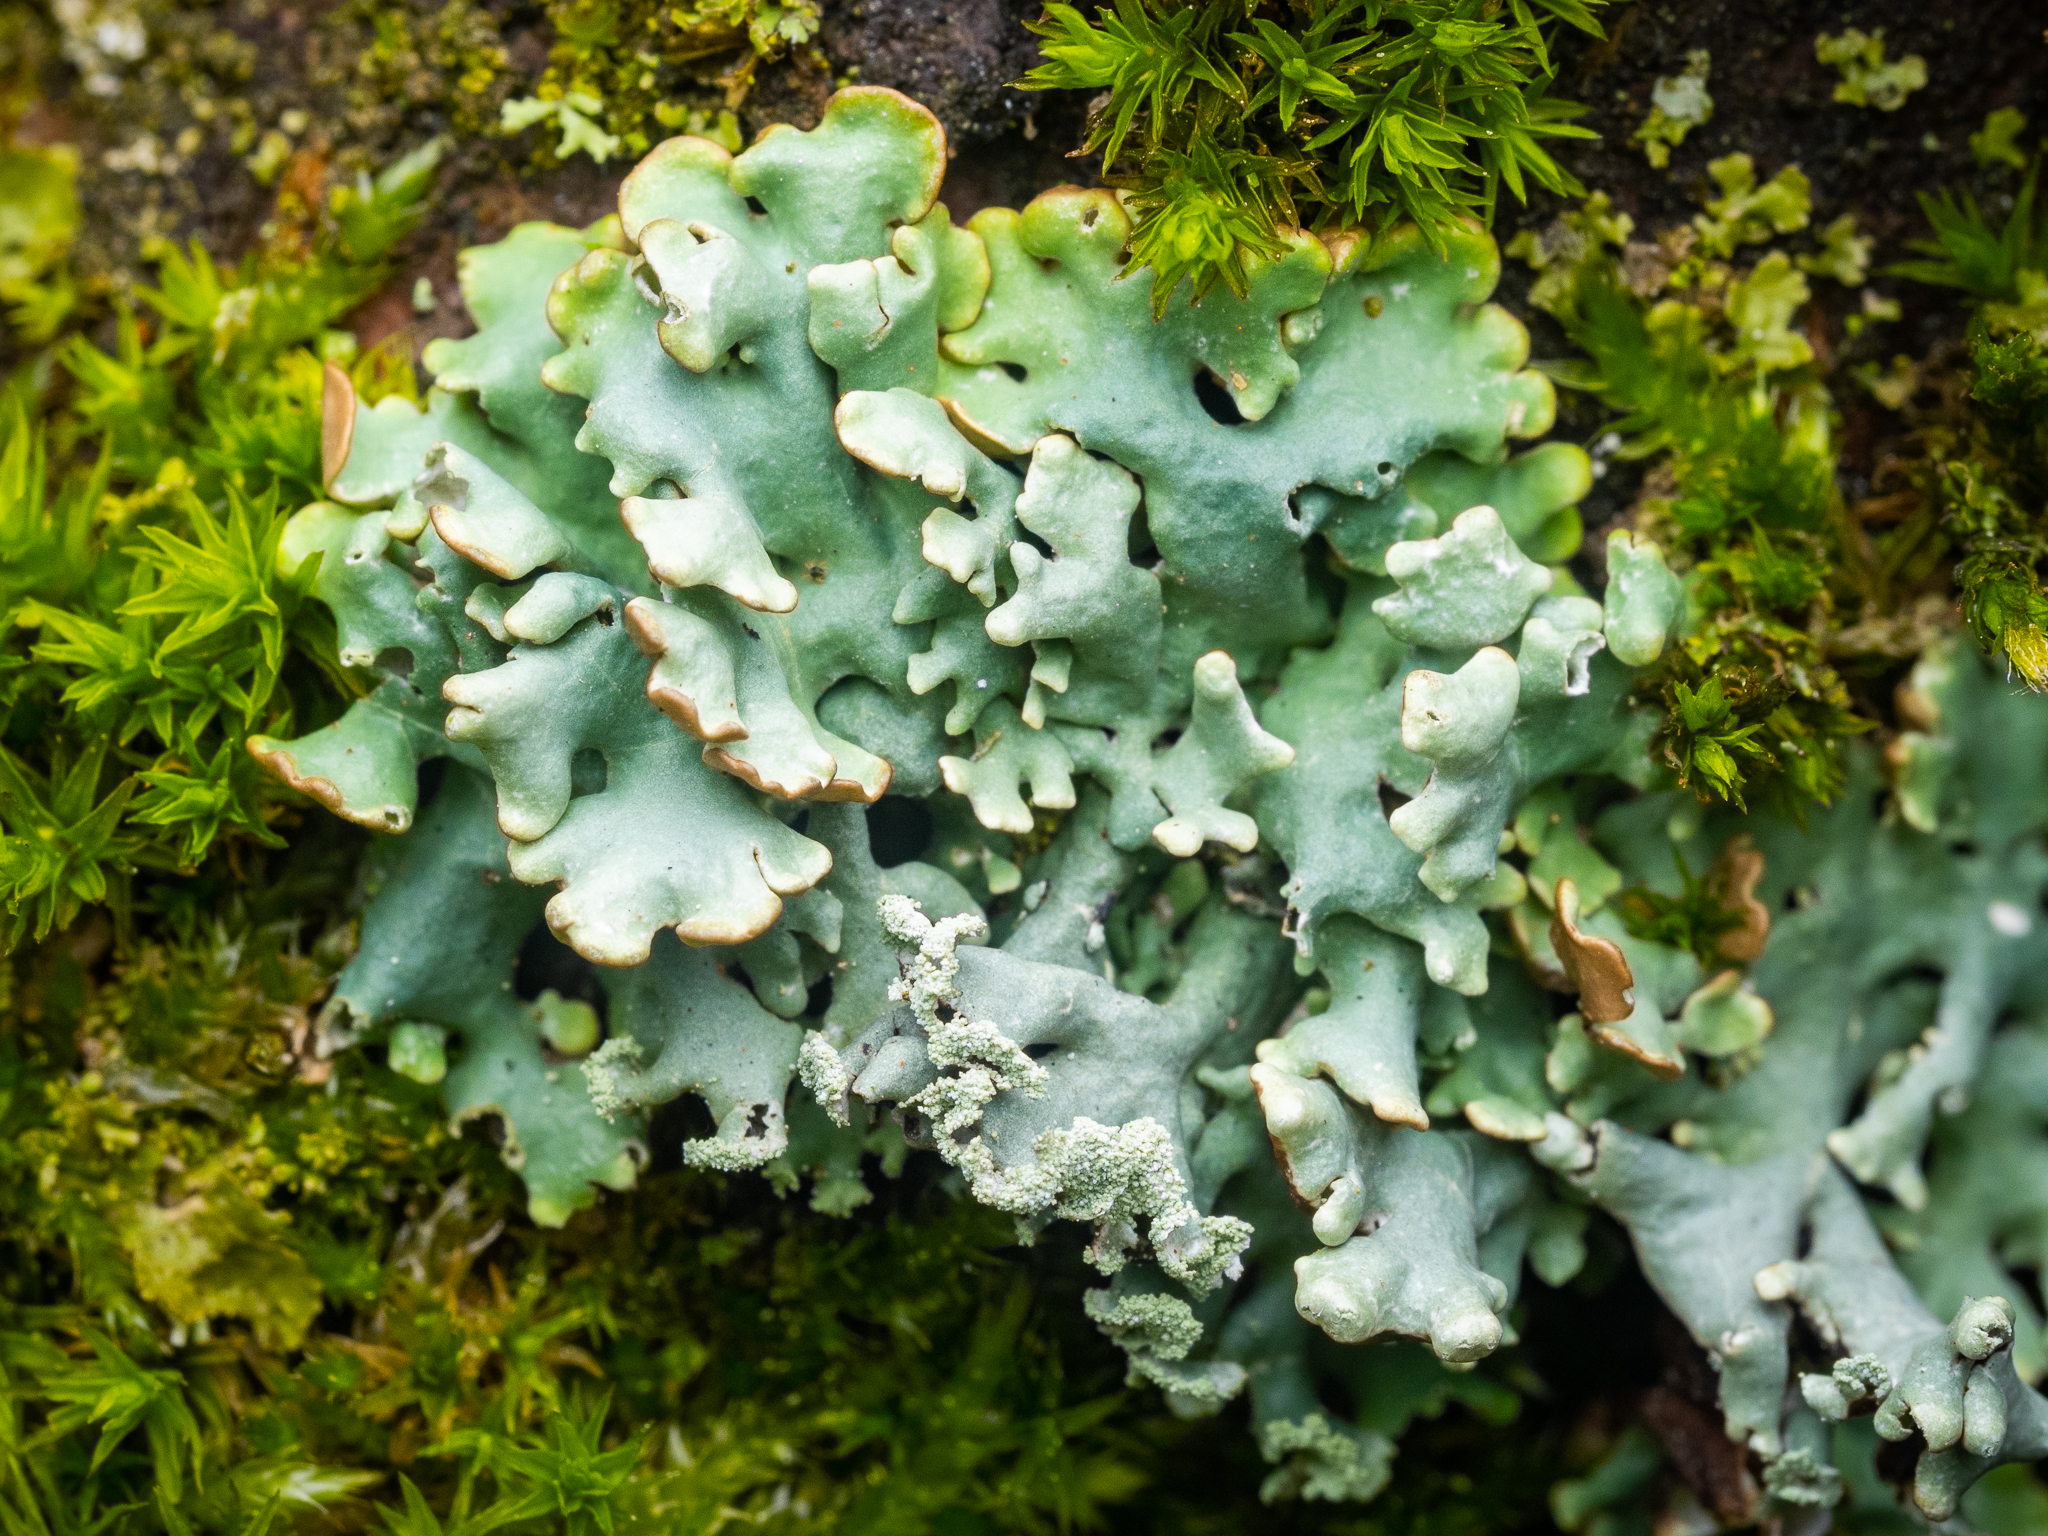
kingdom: Fungi
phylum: Ascomycota
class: Lecanoromycetes
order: Lecanorales
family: Parmeliaceae
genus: Hypogymnia
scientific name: Hypogymnia physodes
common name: Dark crottle
